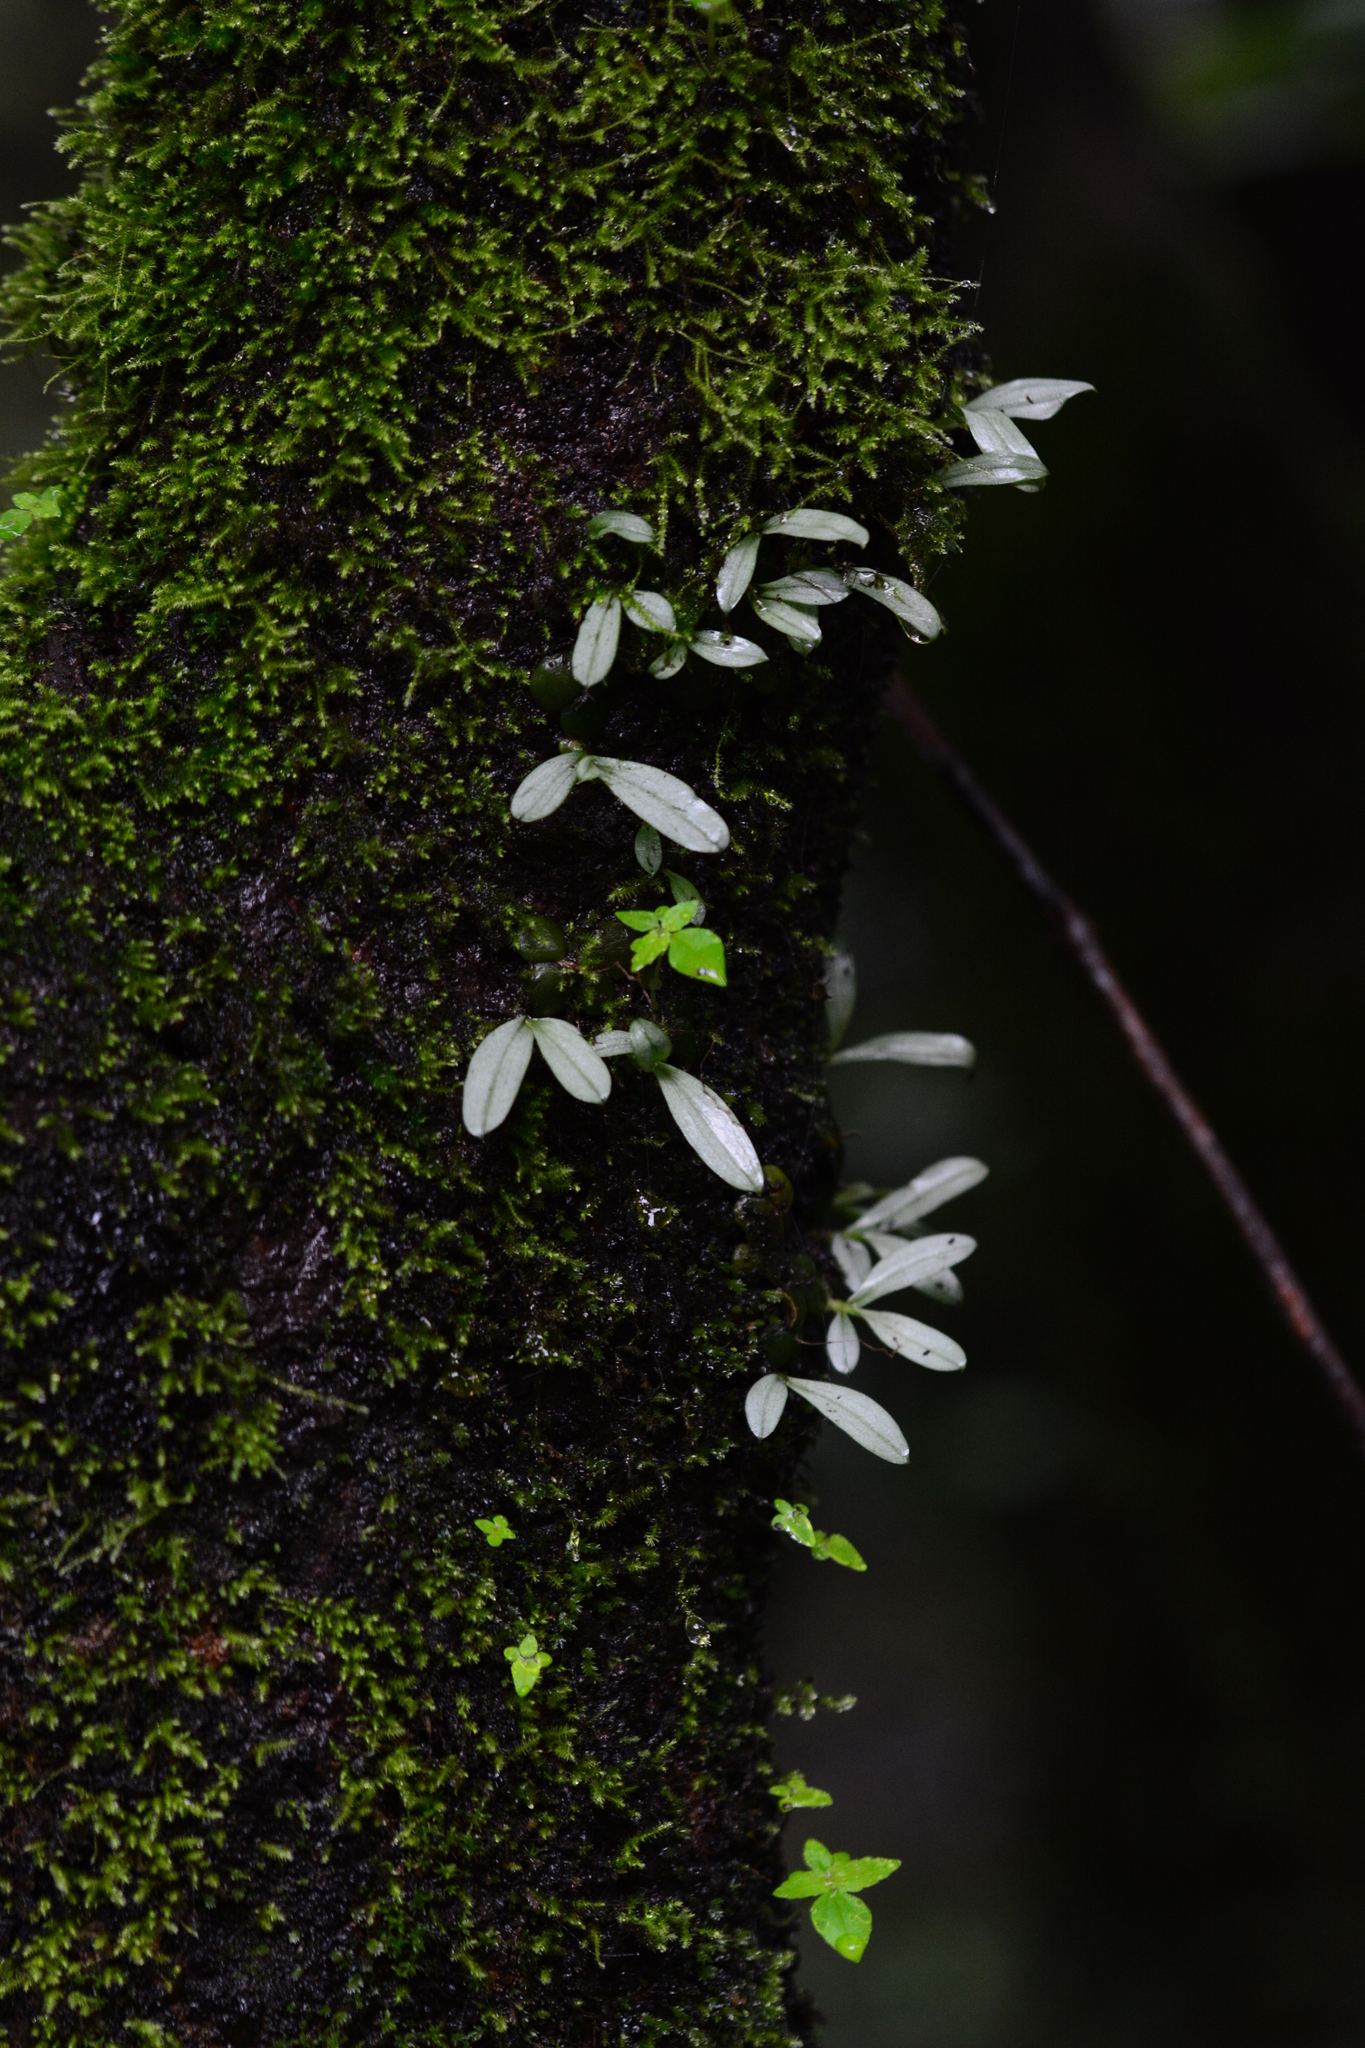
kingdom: Plantae
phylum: Tracheophyta
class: Liliopsida
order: Asparagales
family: Orchidaceae
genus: Porpax
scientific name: Porpax exilis
